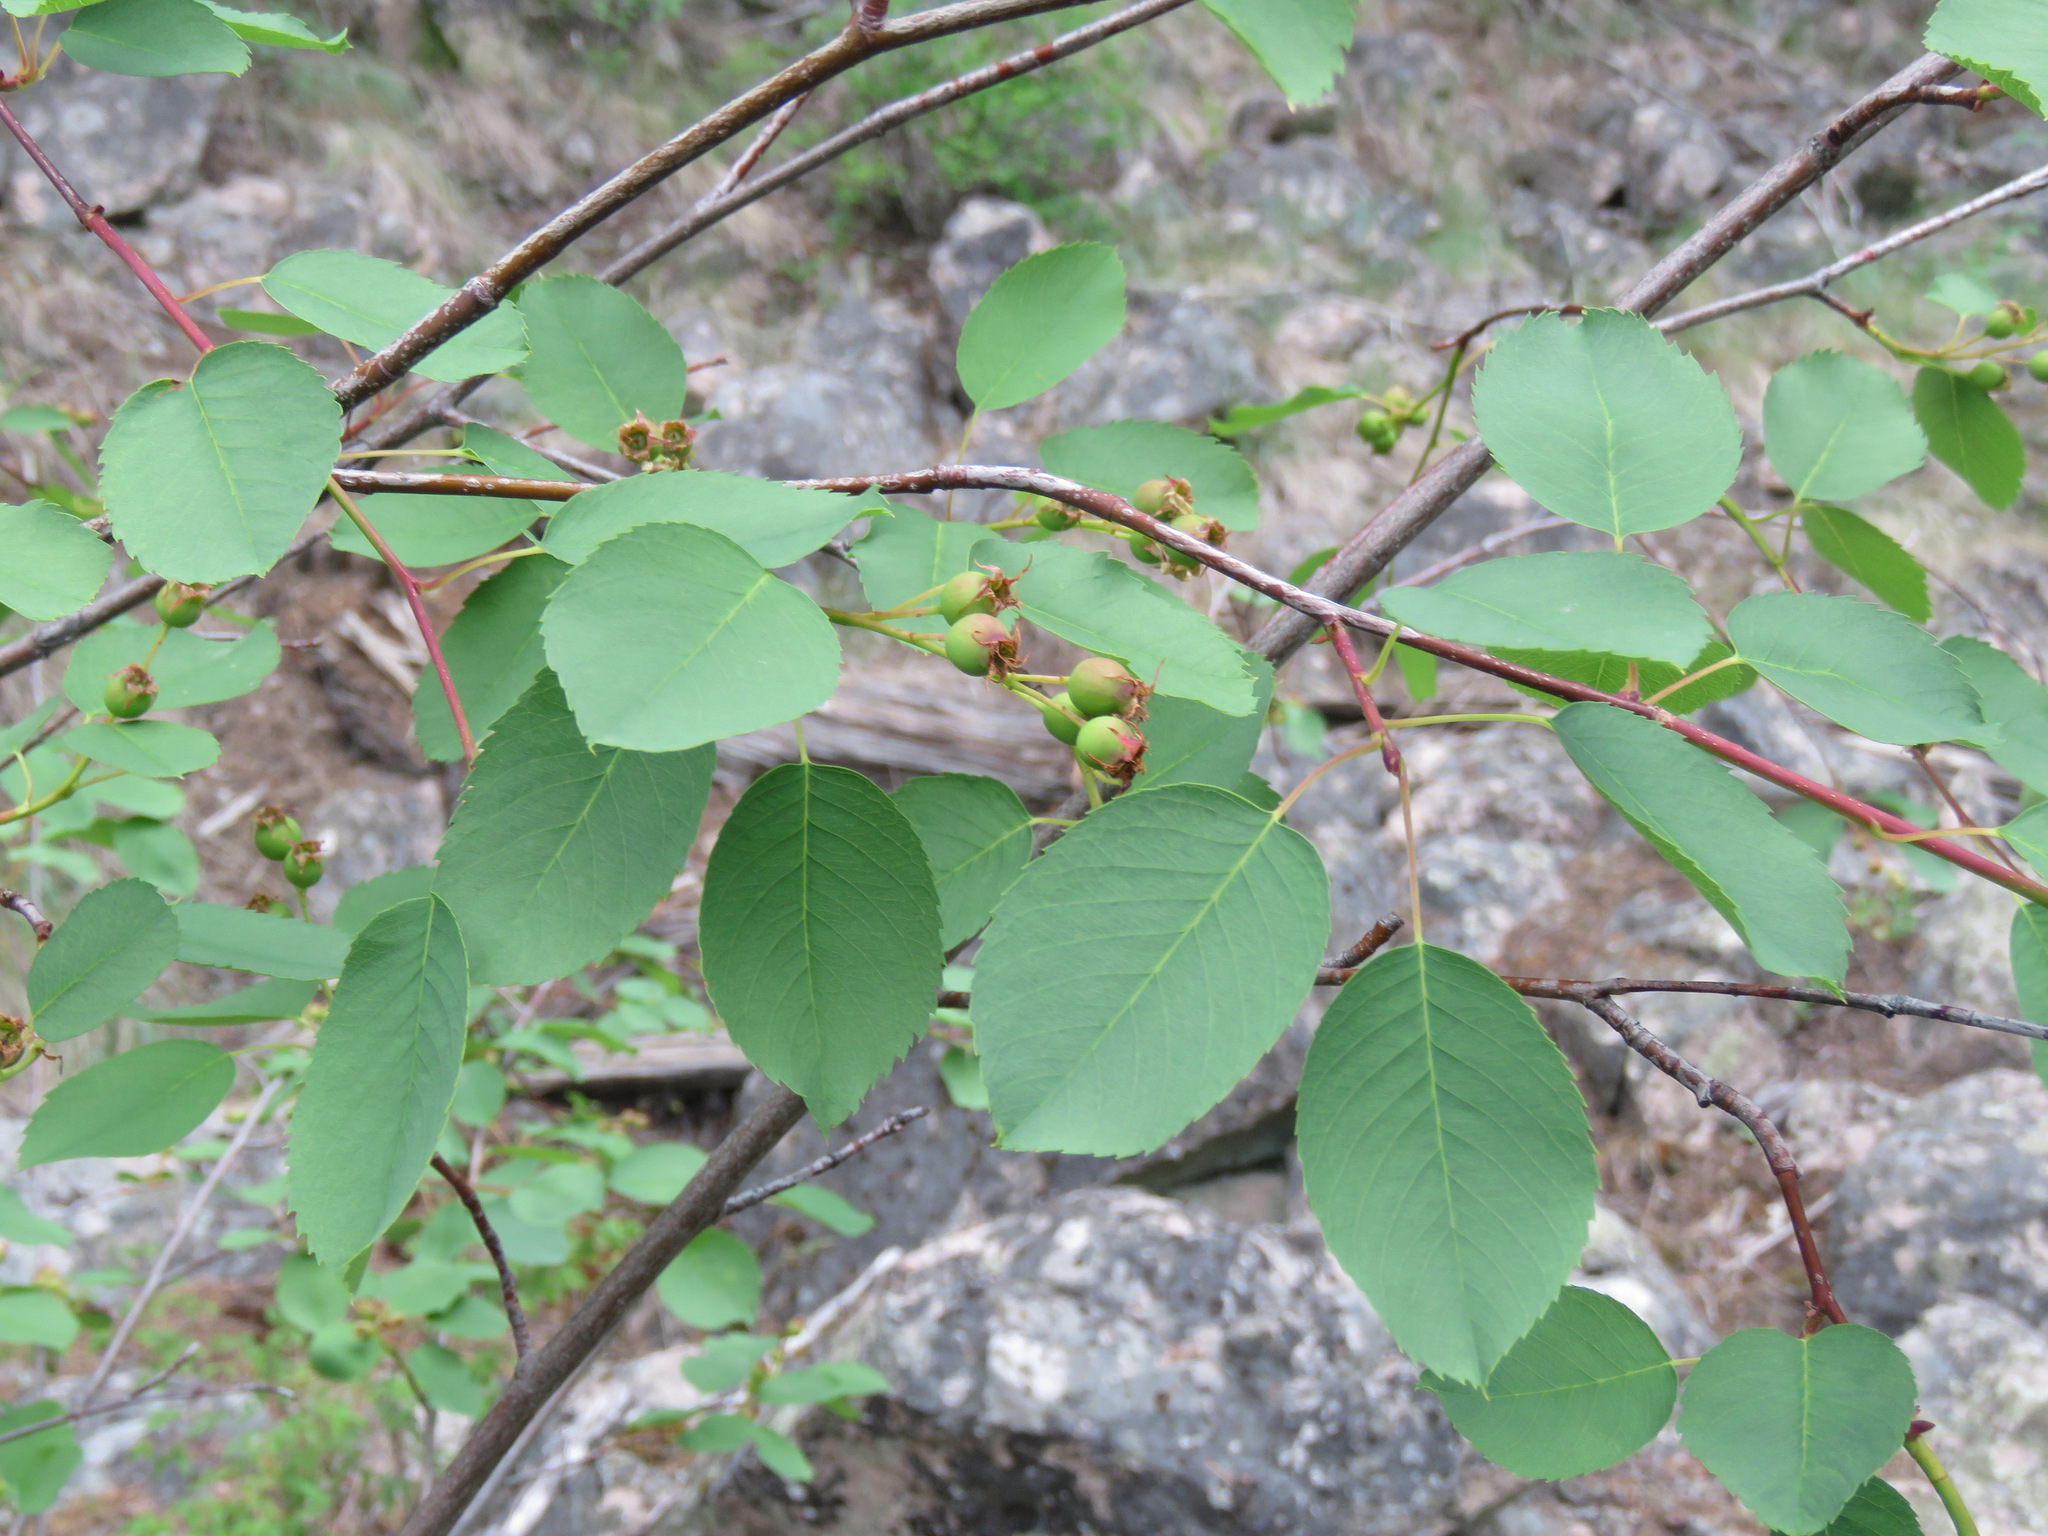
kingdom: Plantae
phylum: Tracheophyta
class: Magnoliopsida
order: Rosales
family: Rosaceae
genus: Amelanchier
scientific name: Amelanchier alnifolia
